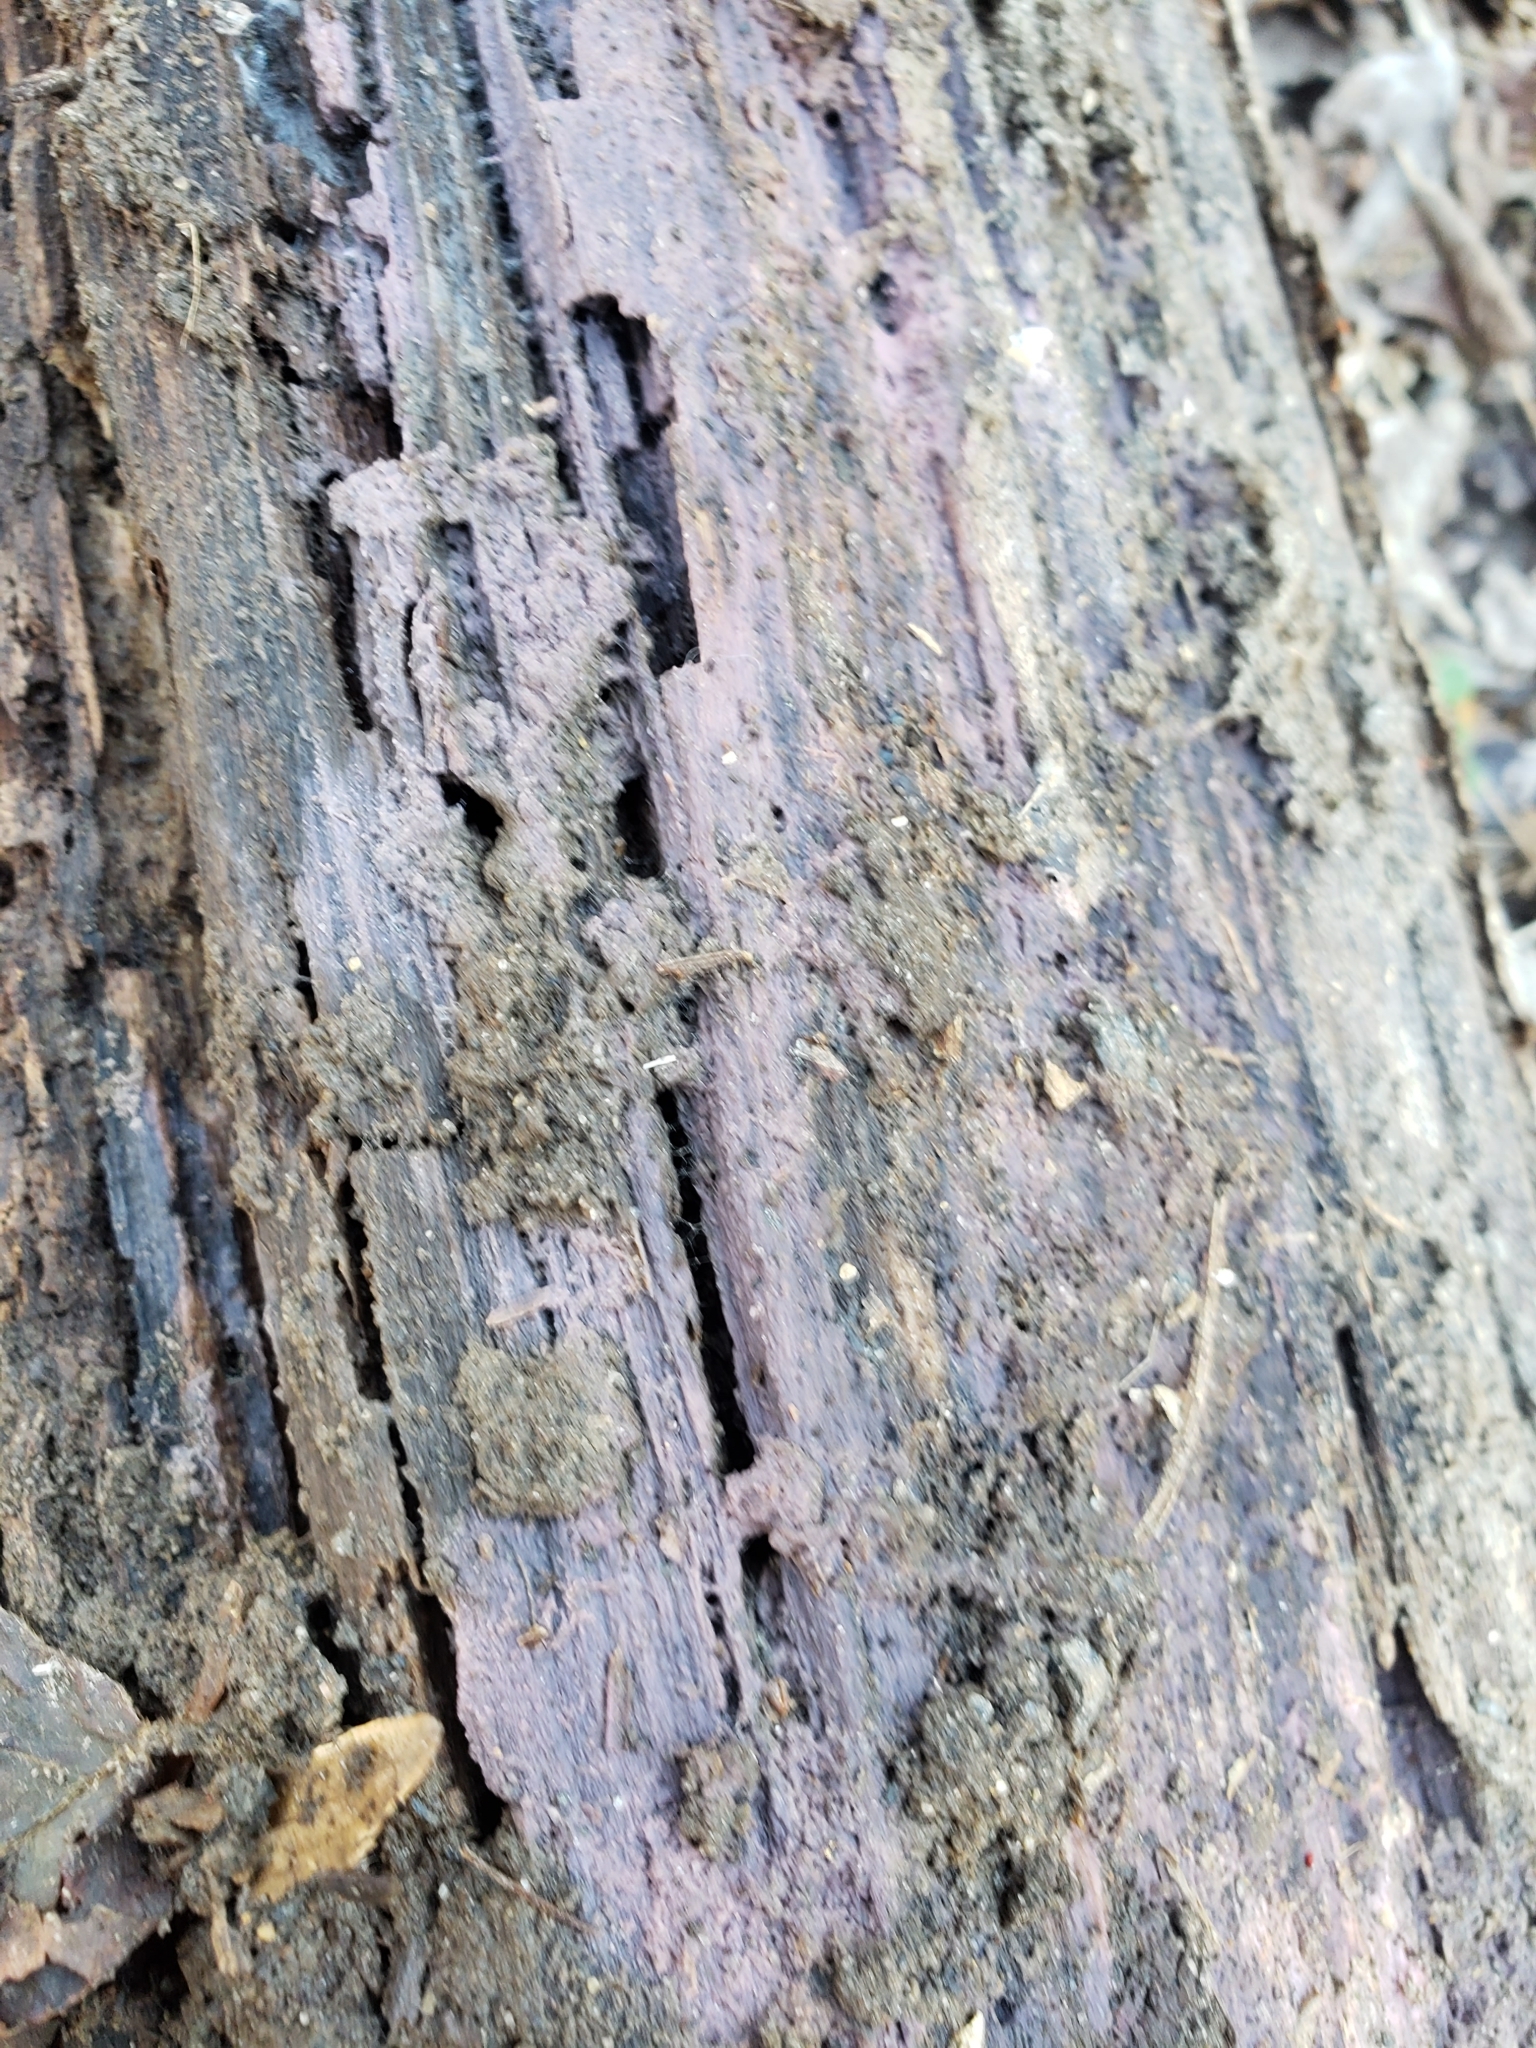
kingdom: Fungi
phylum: Basidiomycota
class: Agaricomycetes
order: Cantharellales
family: Tulasnellaceae
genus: Tulasnella
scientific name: Tulasnella violea
